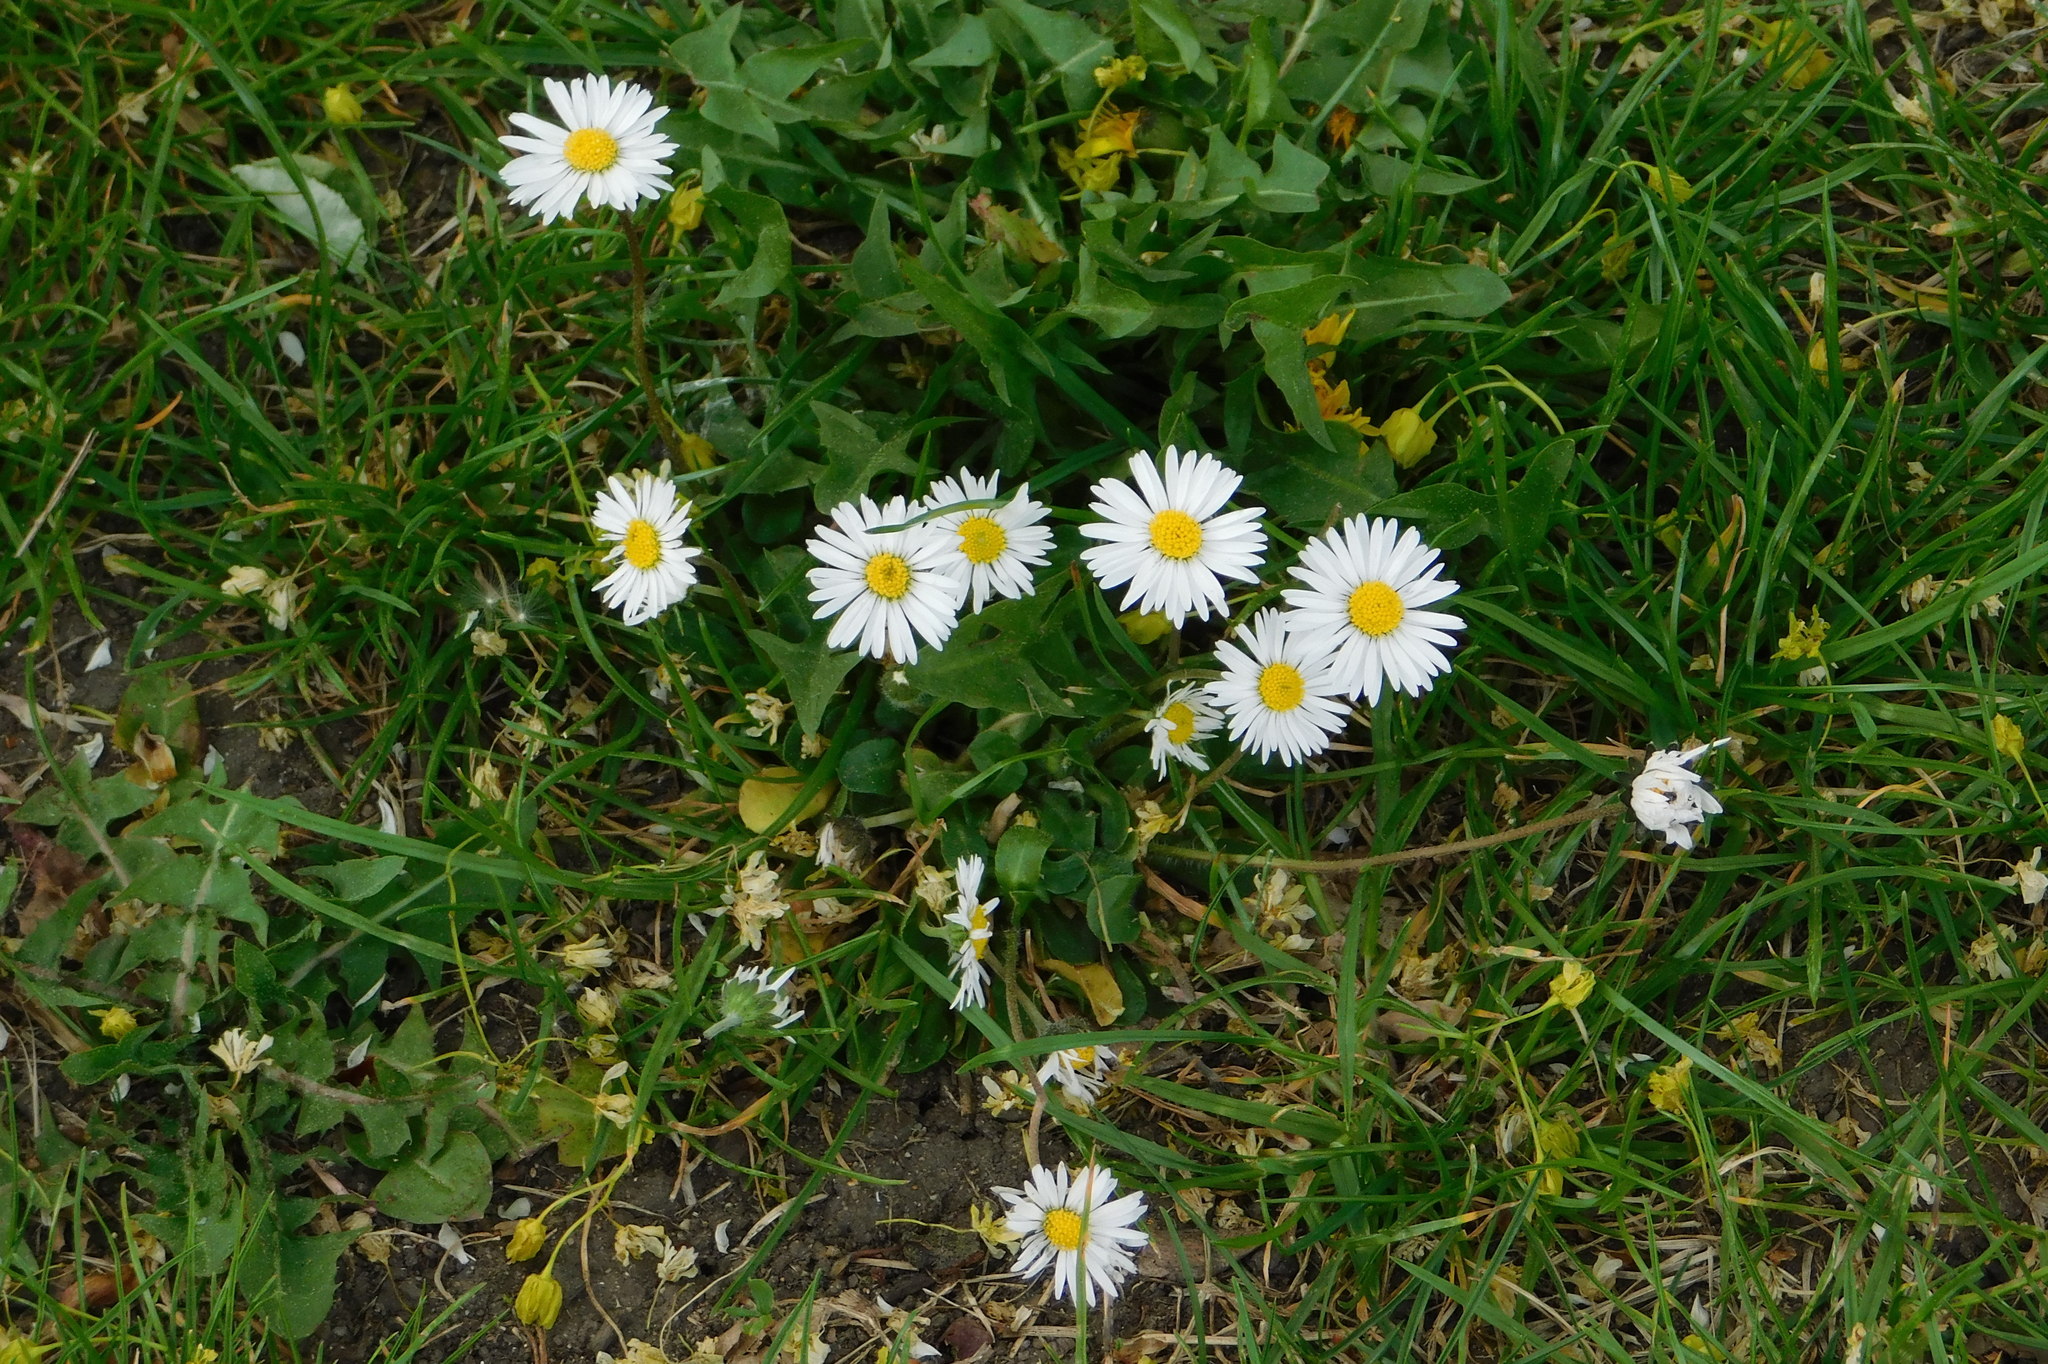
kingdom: Plantae
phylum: Tracheophyta
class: Magnoliopsida
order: Asterales
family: Asteraceae
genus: Bellis
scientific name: Bellis perennis
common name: Lawndaisy
